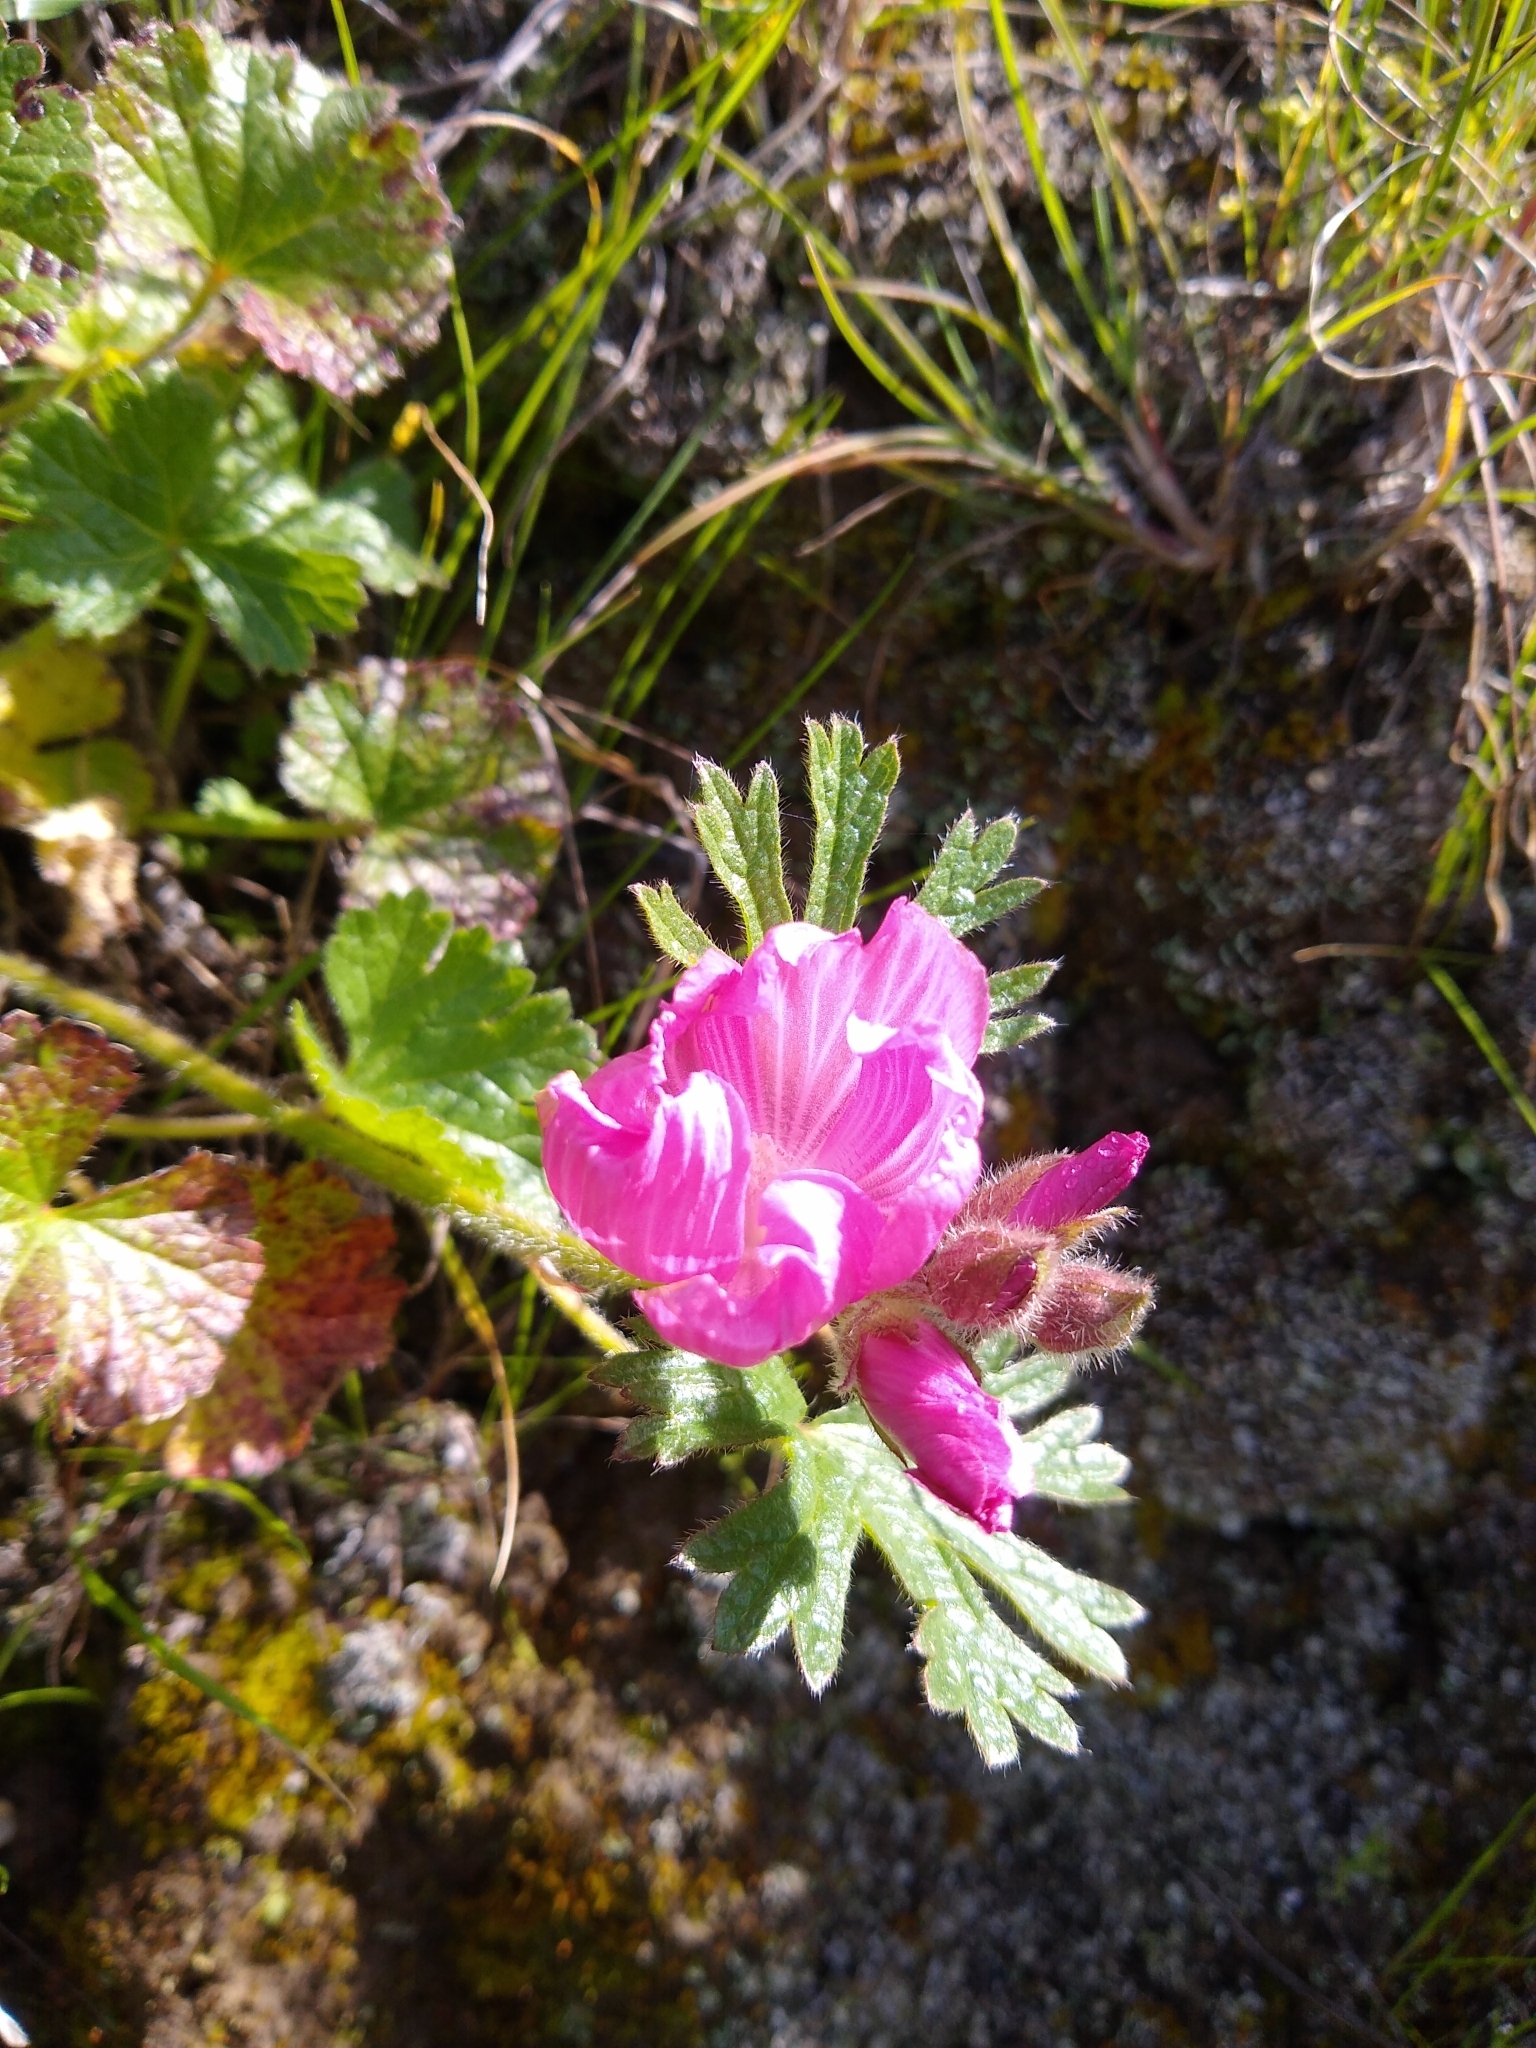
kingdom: Plantae
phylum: Tracheophyta
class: Magnoliopsida
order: Malvales
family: Malvaceae
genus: Sidalcea
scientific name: Sidalcea malviflora
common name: Greek mallow
